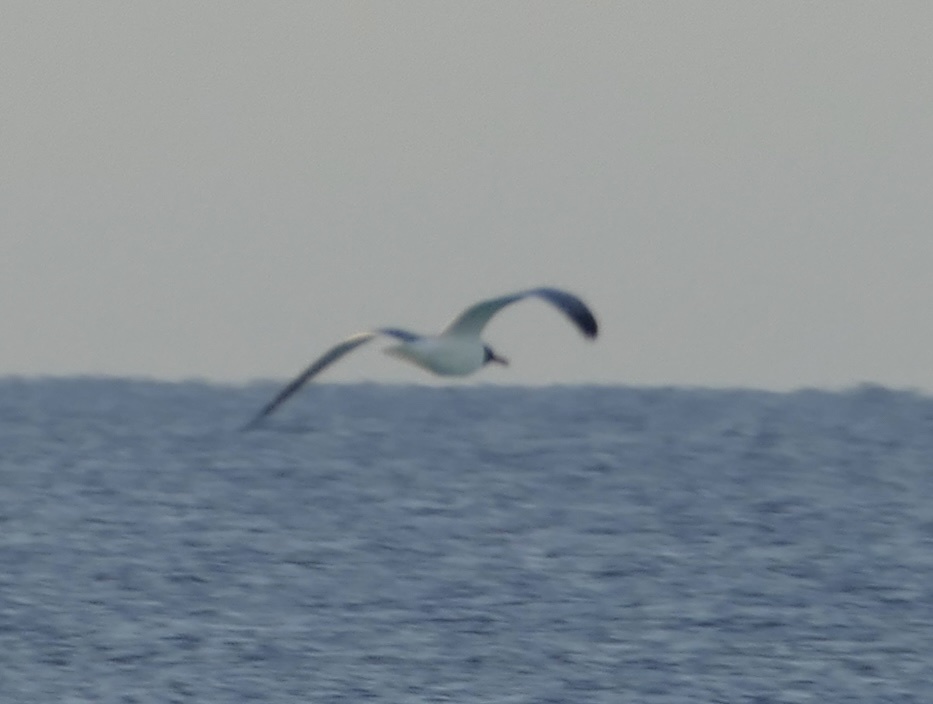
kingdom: Animalia
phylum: Chordata
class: Aves
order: Charadriiformes
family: Laridae
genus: Leucophaeus
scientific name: Leucophaeus atricilla
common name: Laughing gull
